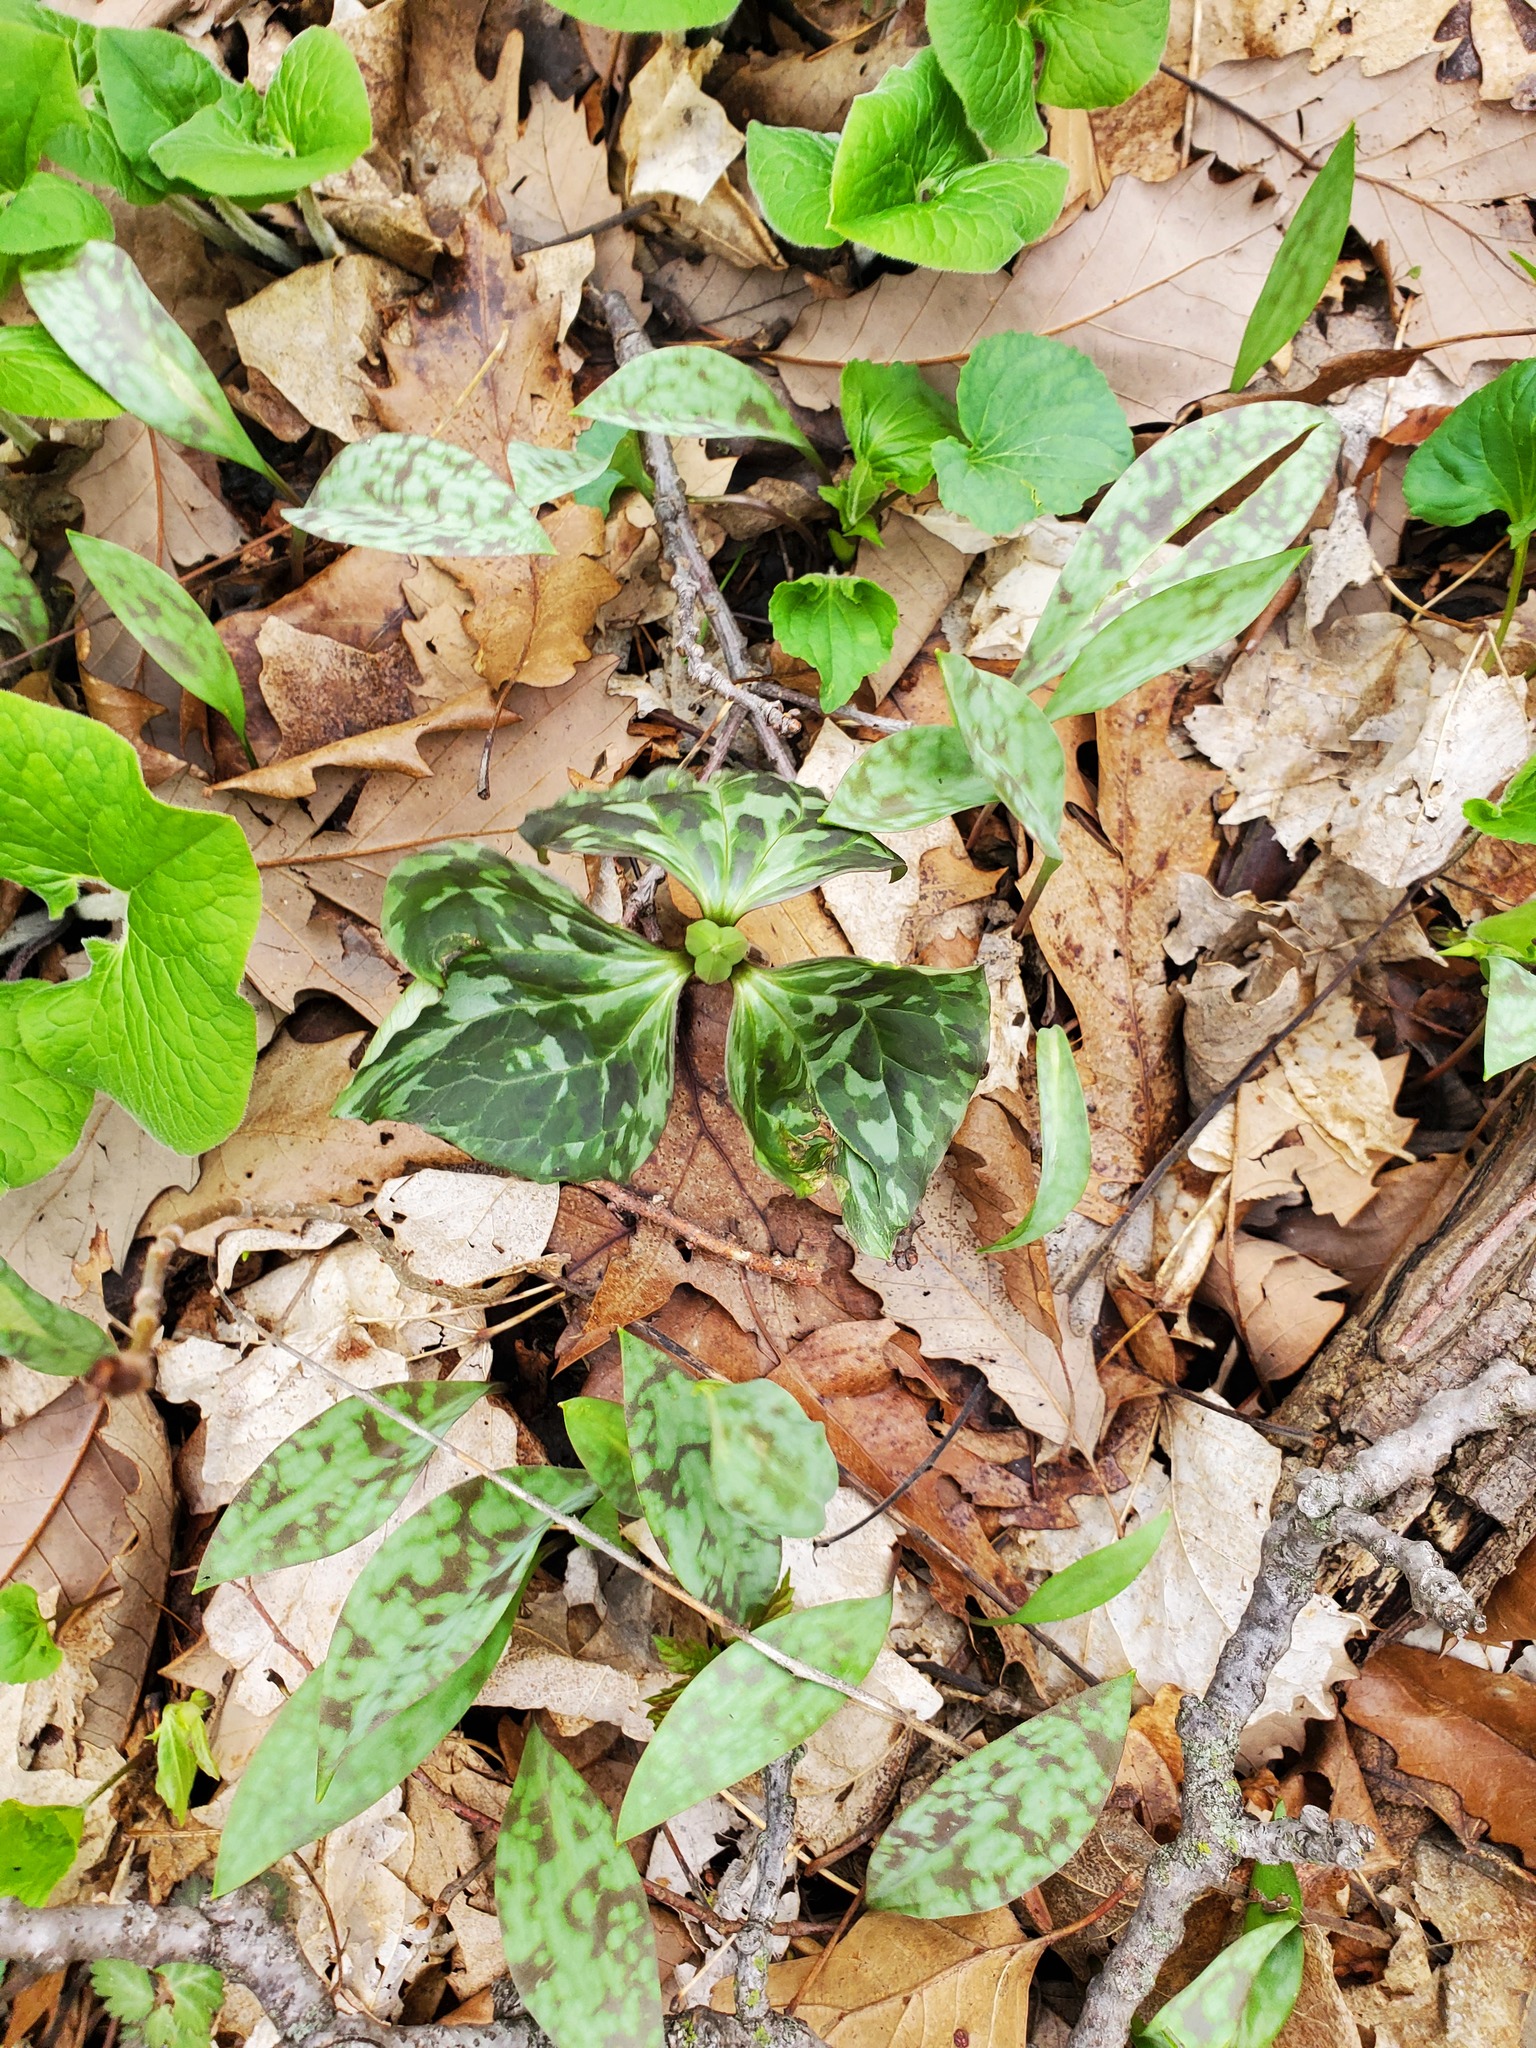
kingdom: Plantae
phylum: Tracheophyta
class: Liliopsida
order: Liliales
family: Melanthiaceae
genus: Trillium
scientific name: Trillium recurvatum
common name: Bloody butcher
